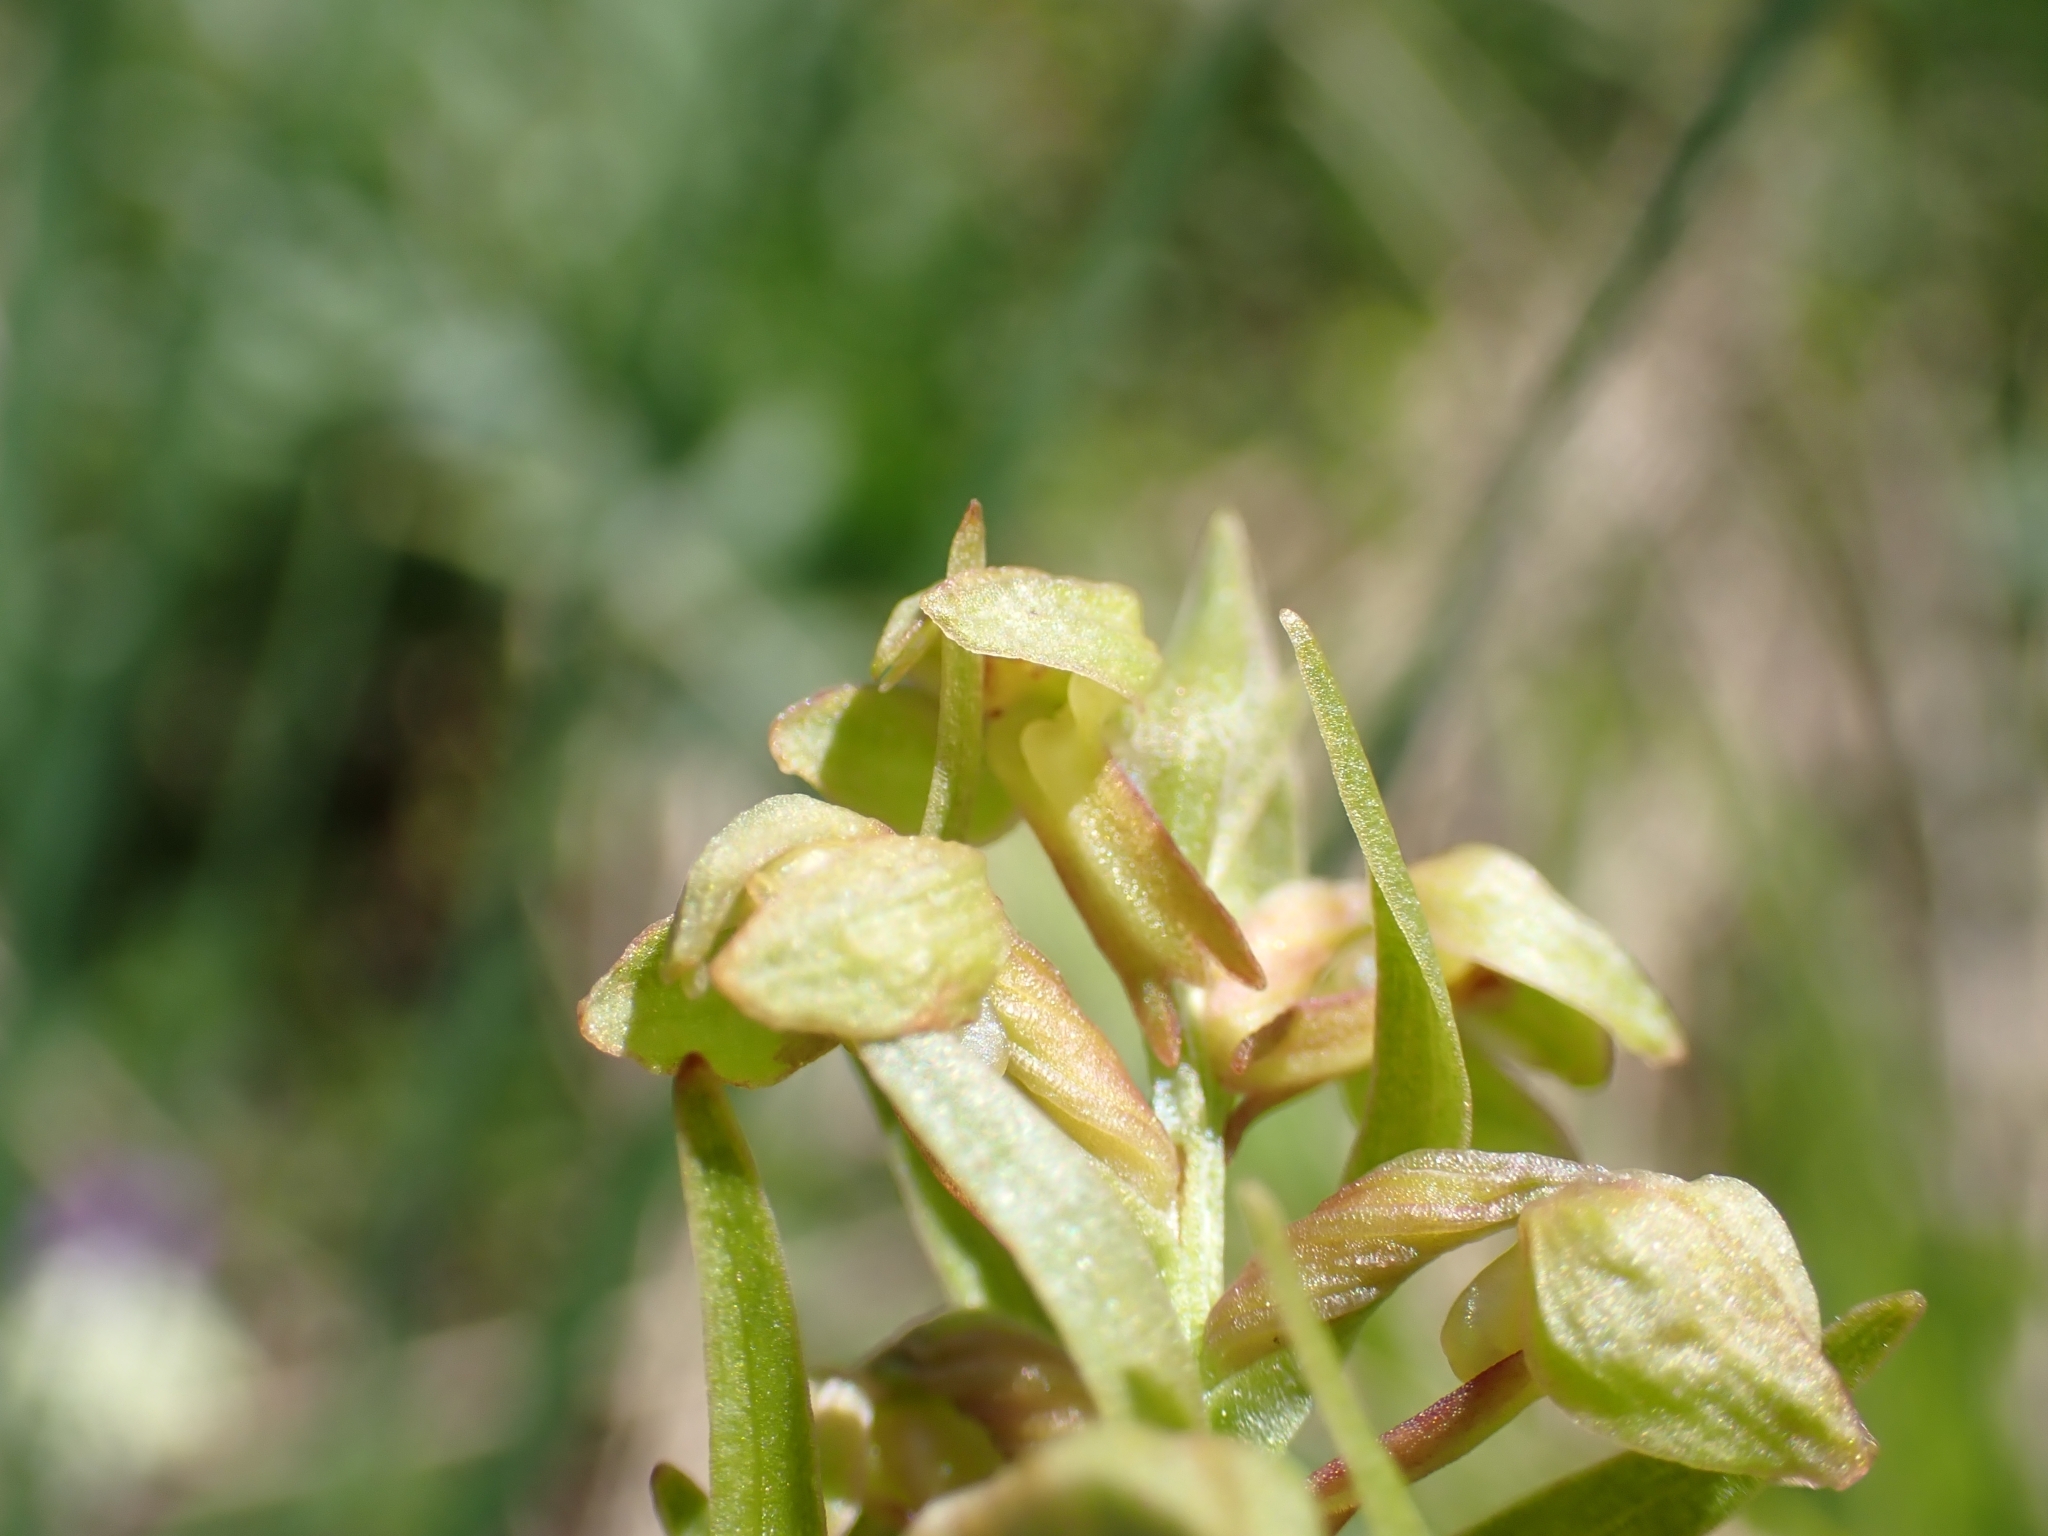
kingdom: Plantae
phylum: Tracheophyta
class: Liliopsida
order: Asparagales
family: Orchidaceae
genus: Dactylorhiza
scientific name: Dactylorhiza viridis
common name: Longbract frog orchid
